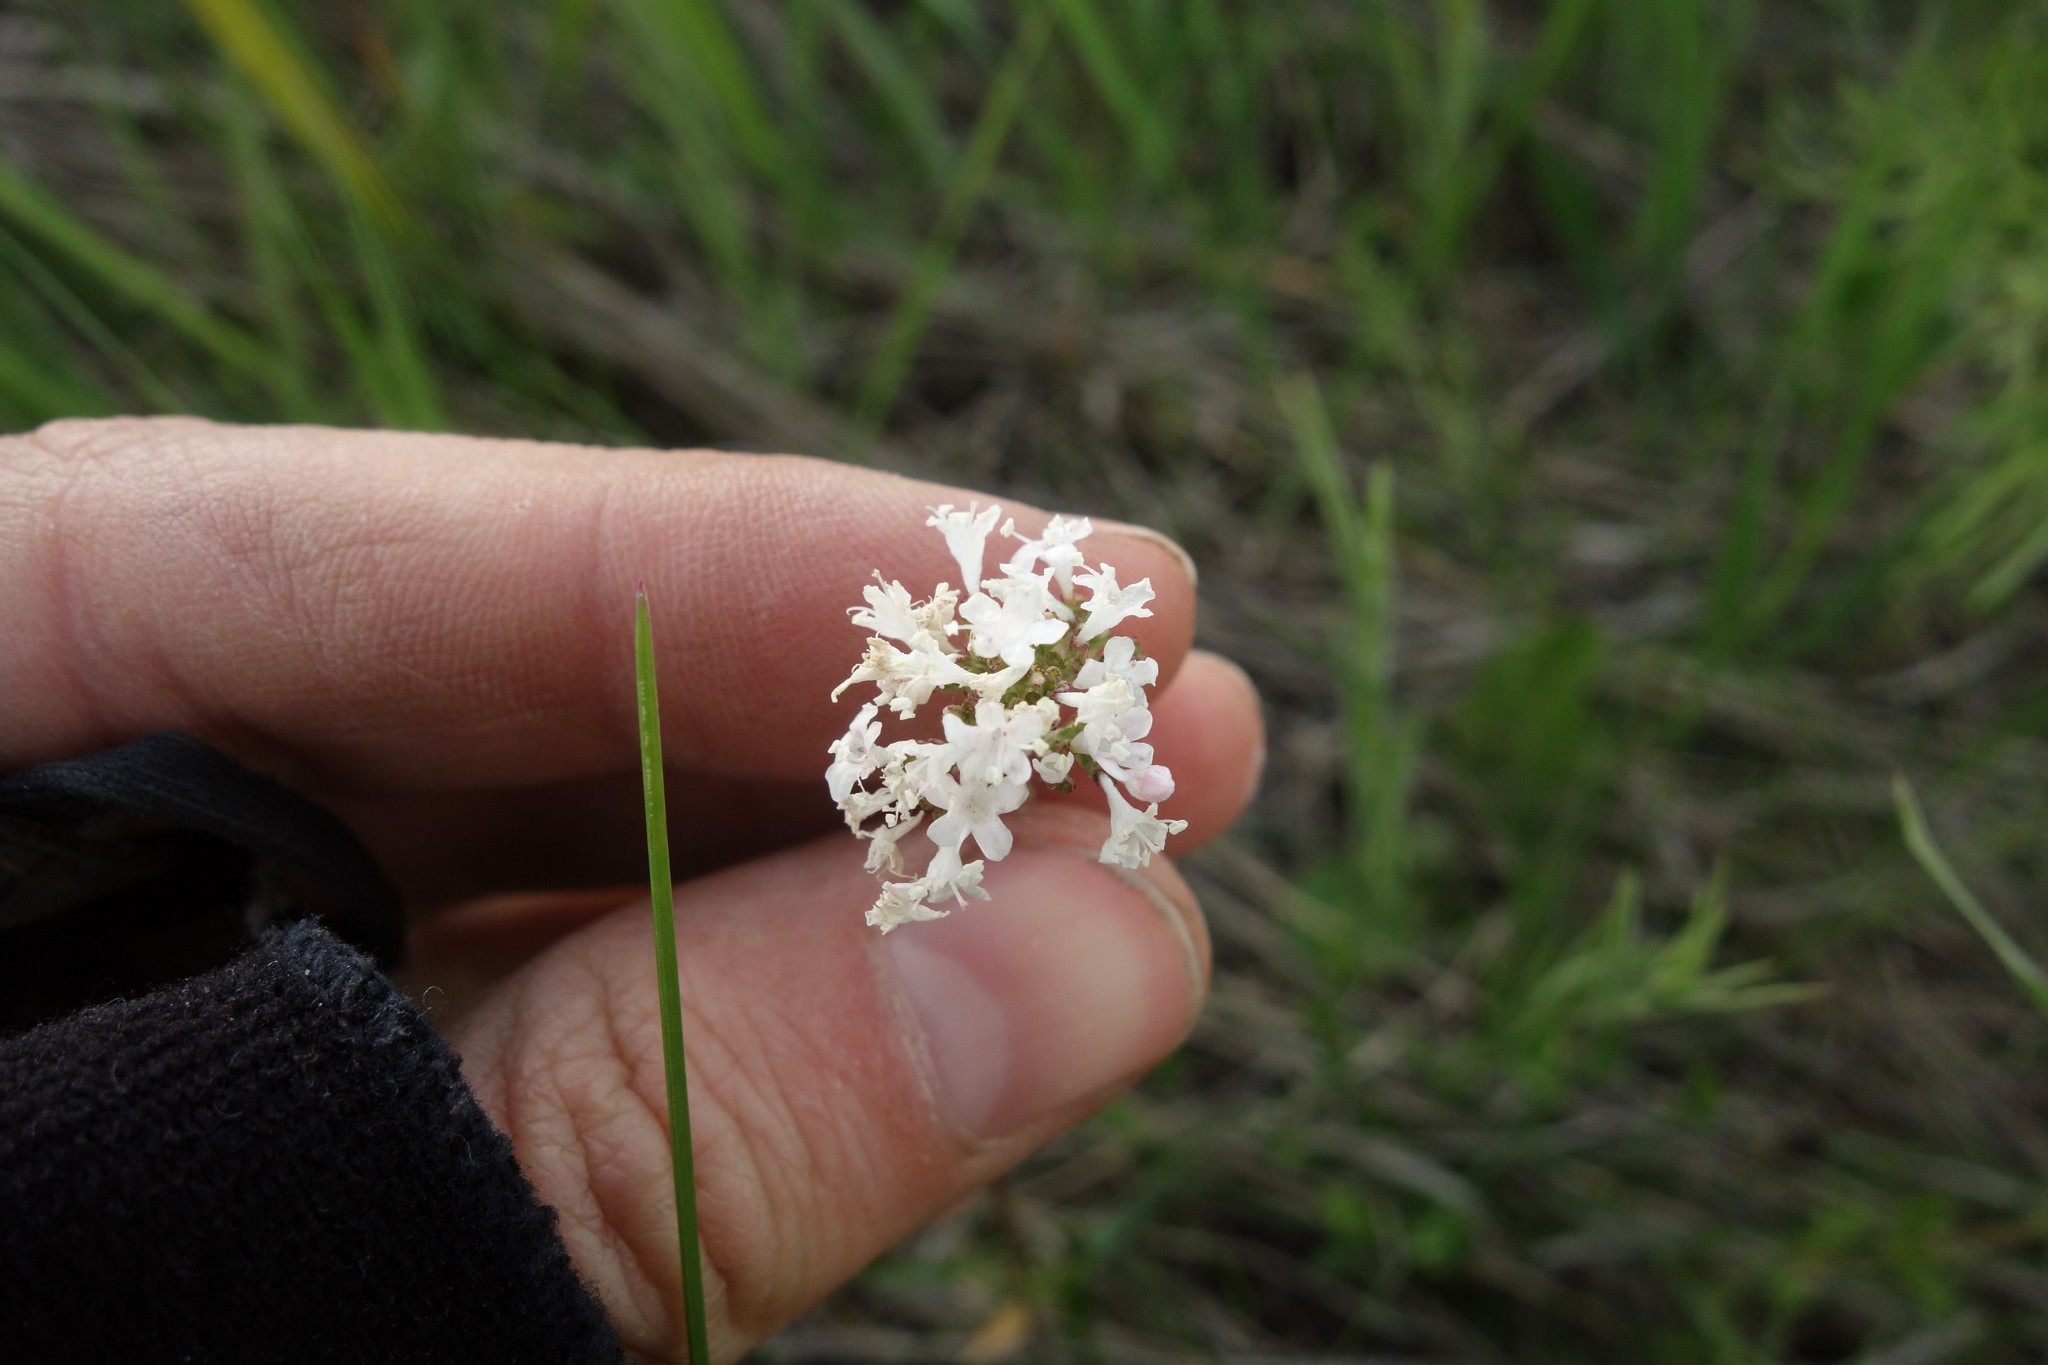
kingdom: Plantae
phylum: Tracheophyta
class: Magnoliopsida
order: Dipsacales
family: Caprifoliaceae
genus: Valeriana
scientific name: Valeriana tuberosa
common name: Tuberous valerian
